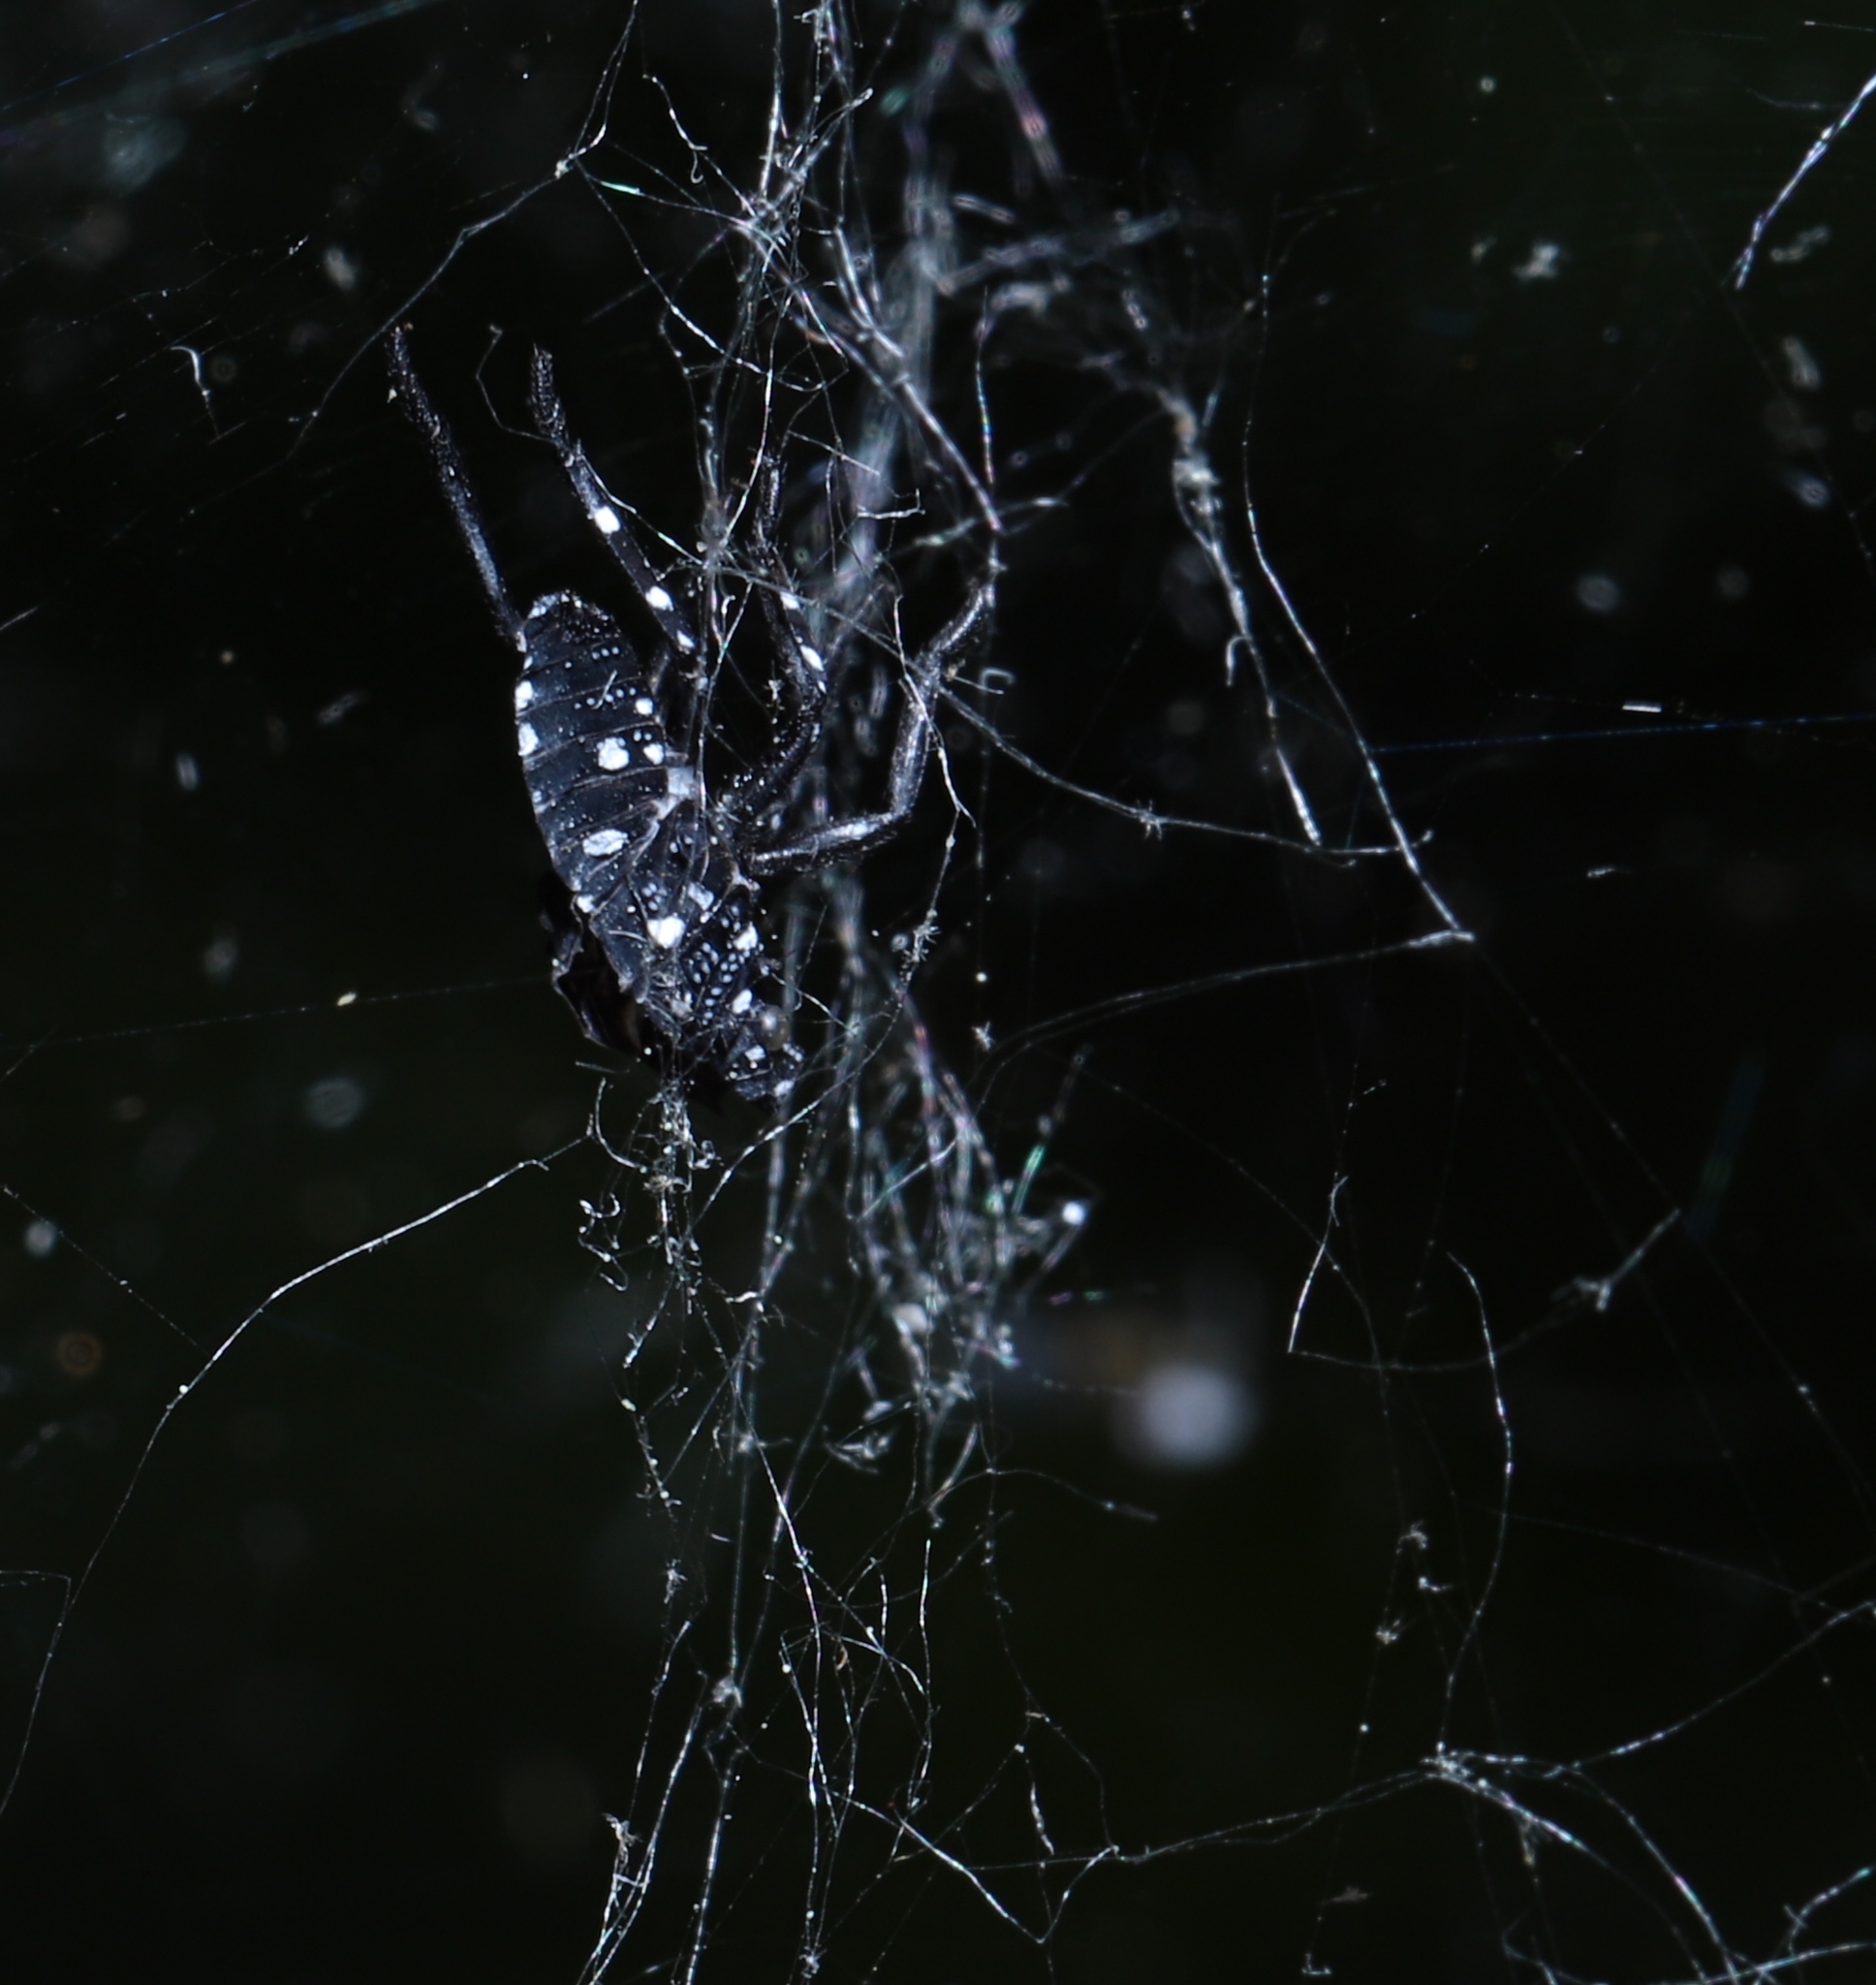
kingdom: Animalia
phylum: Arthropoda
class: Insecta
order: Hemiptera
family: Fulgoridae
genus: Lycorma
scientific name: Lycorma delicatula
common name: Spotted lanternfly
